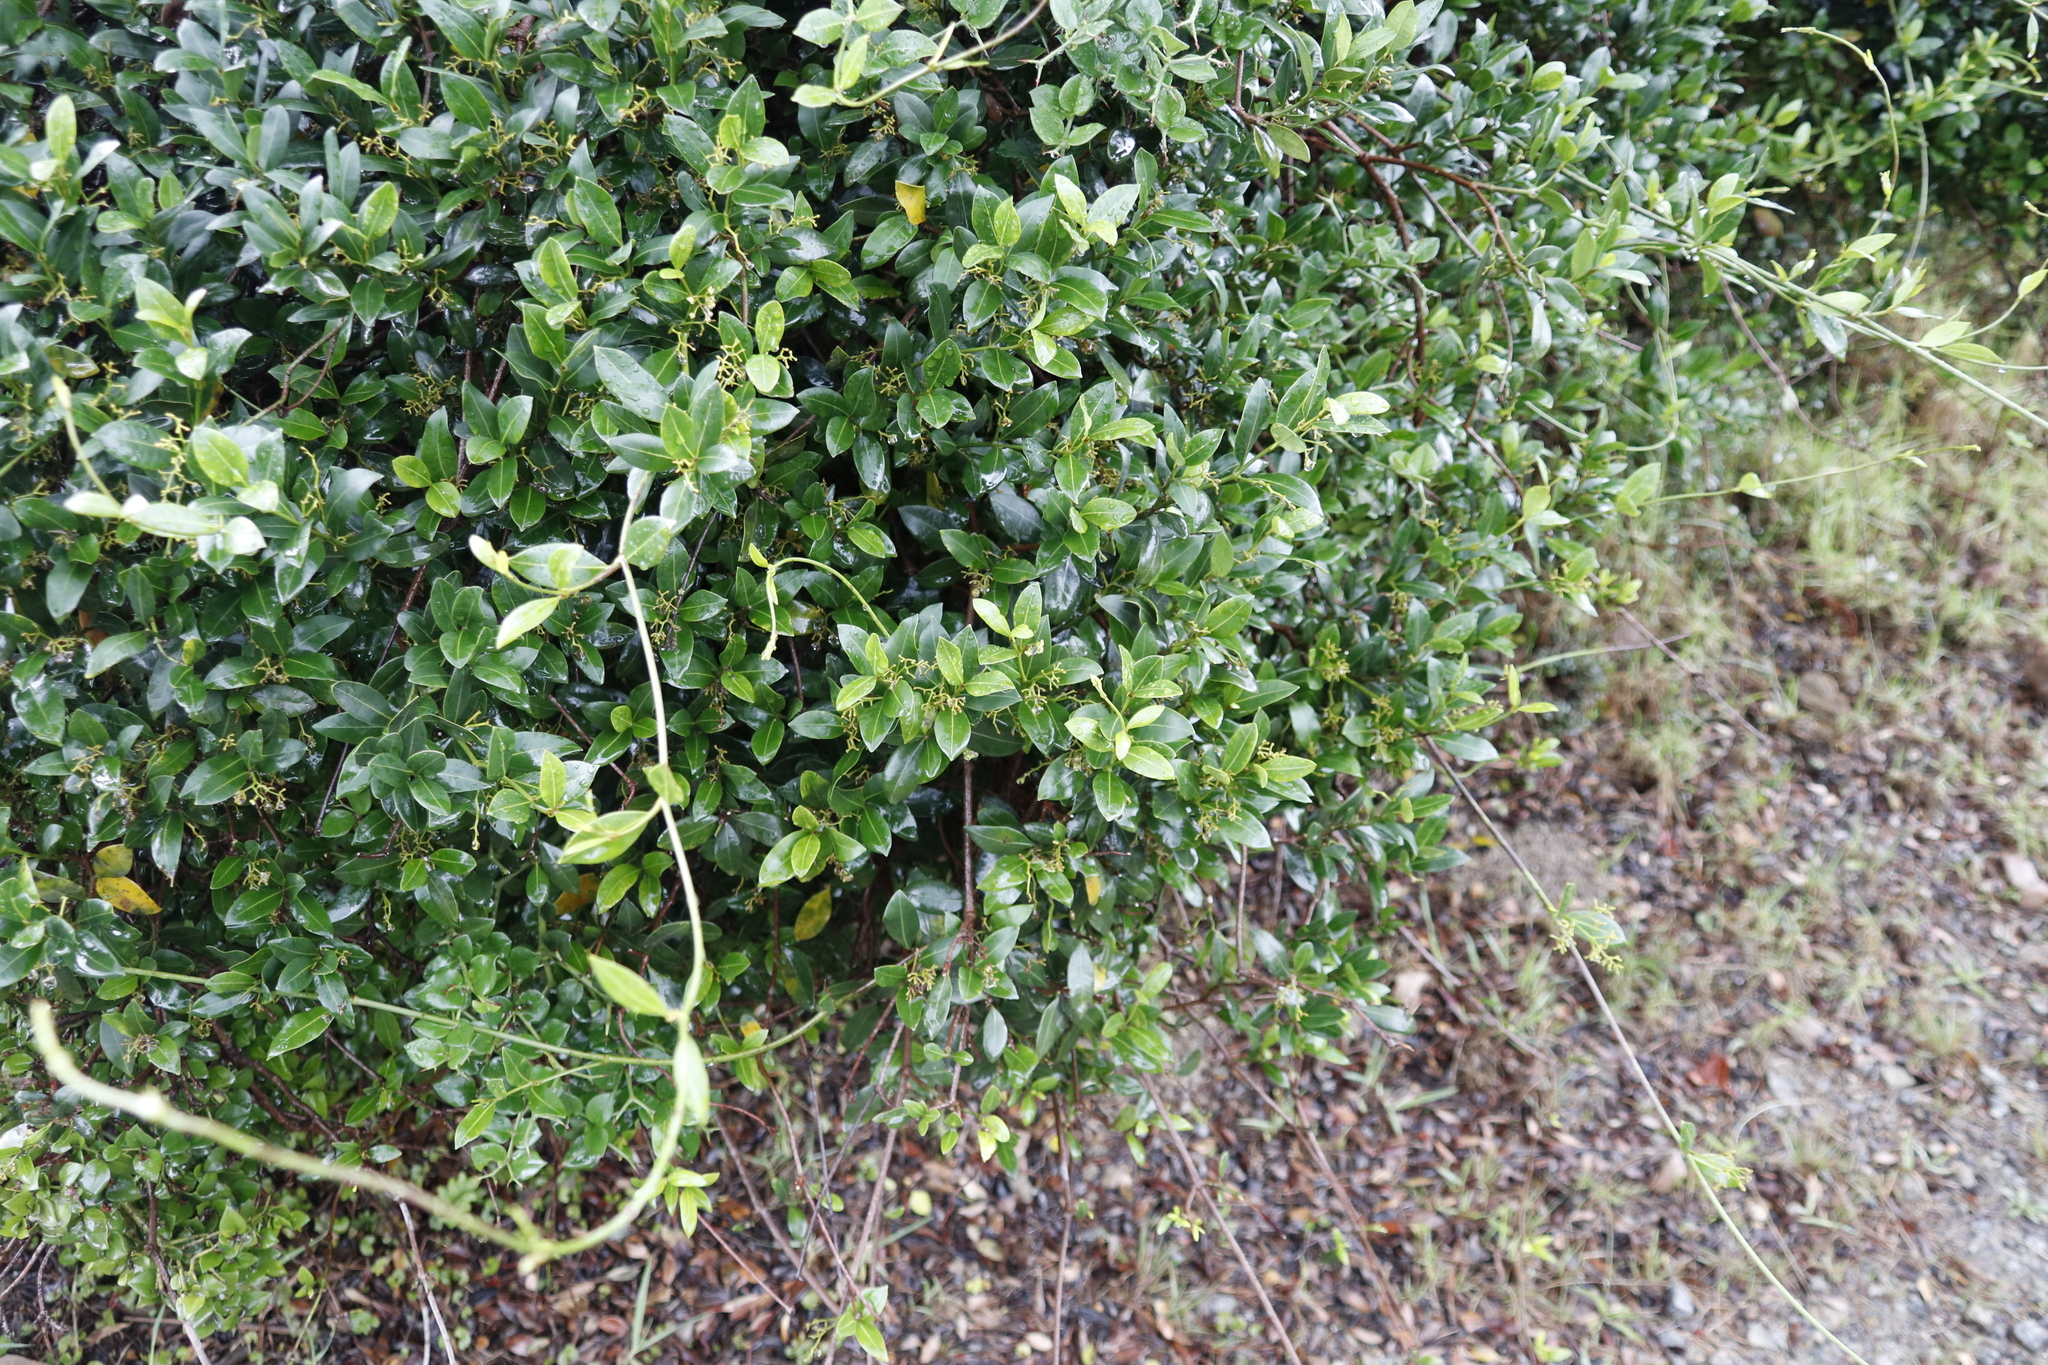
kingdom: Plantae
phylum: Tracheophyta
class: Magnoliopsida
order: Gentianales
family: Apocynaceae
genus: Secamone
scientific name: Secamone alpini
